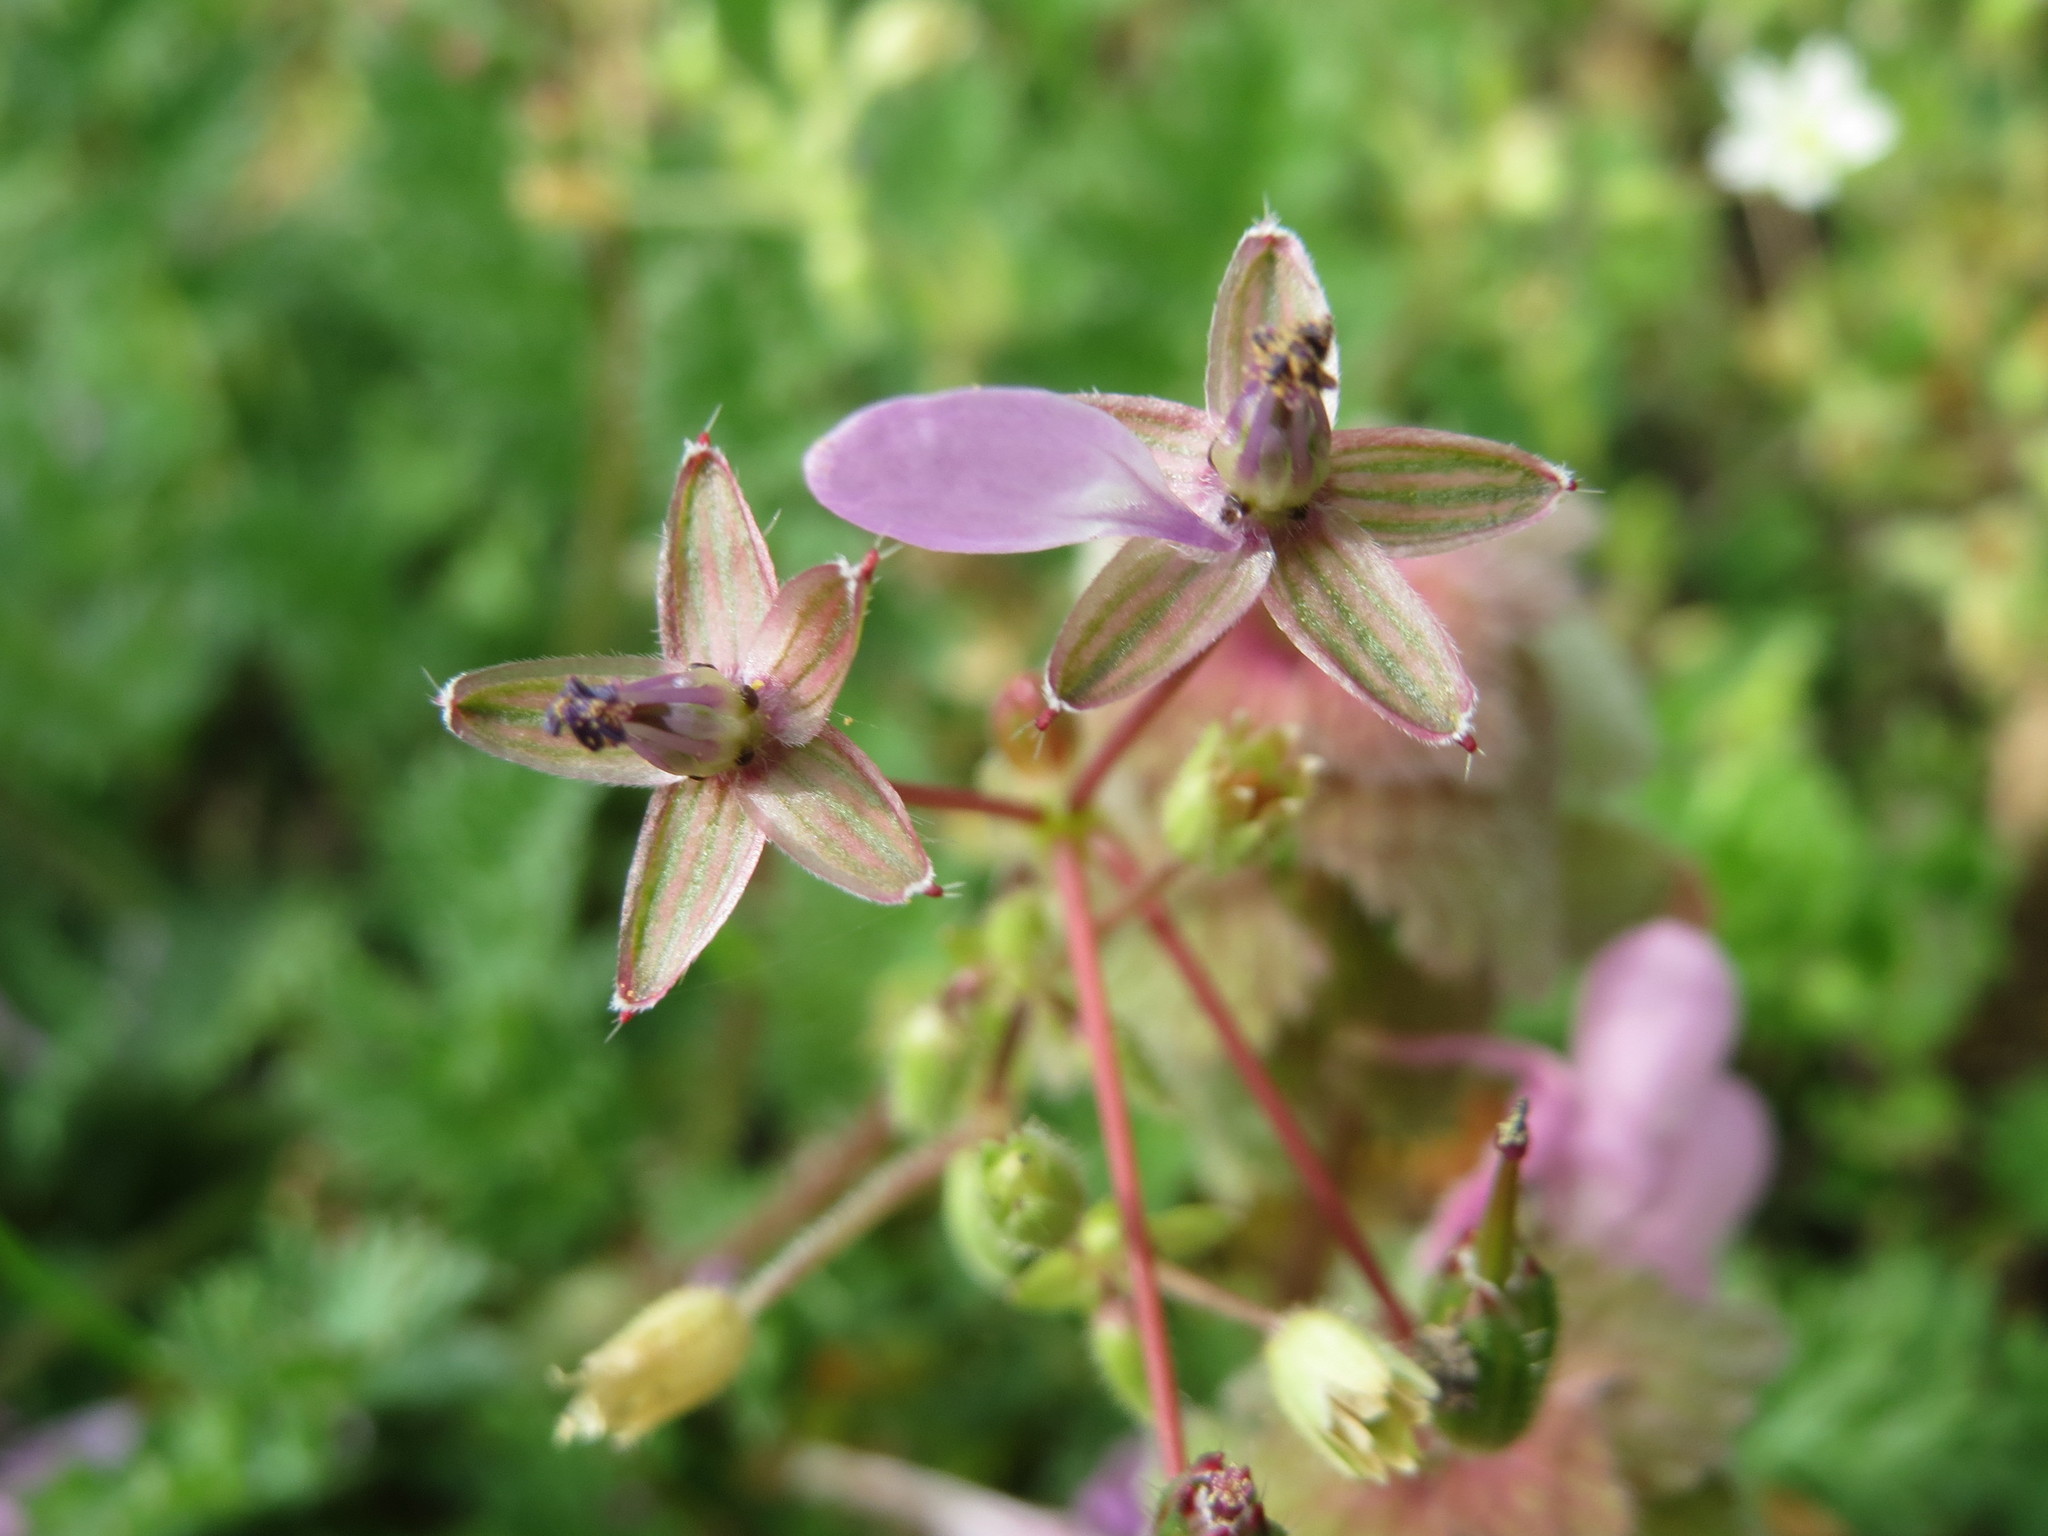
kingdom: Plantae
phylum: Tracheophyta
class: Magnoliopsida
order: Geraniales
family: Geraniaceae
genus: Erodium
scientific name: Erodium cicutarium
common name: Common stork's-bill
